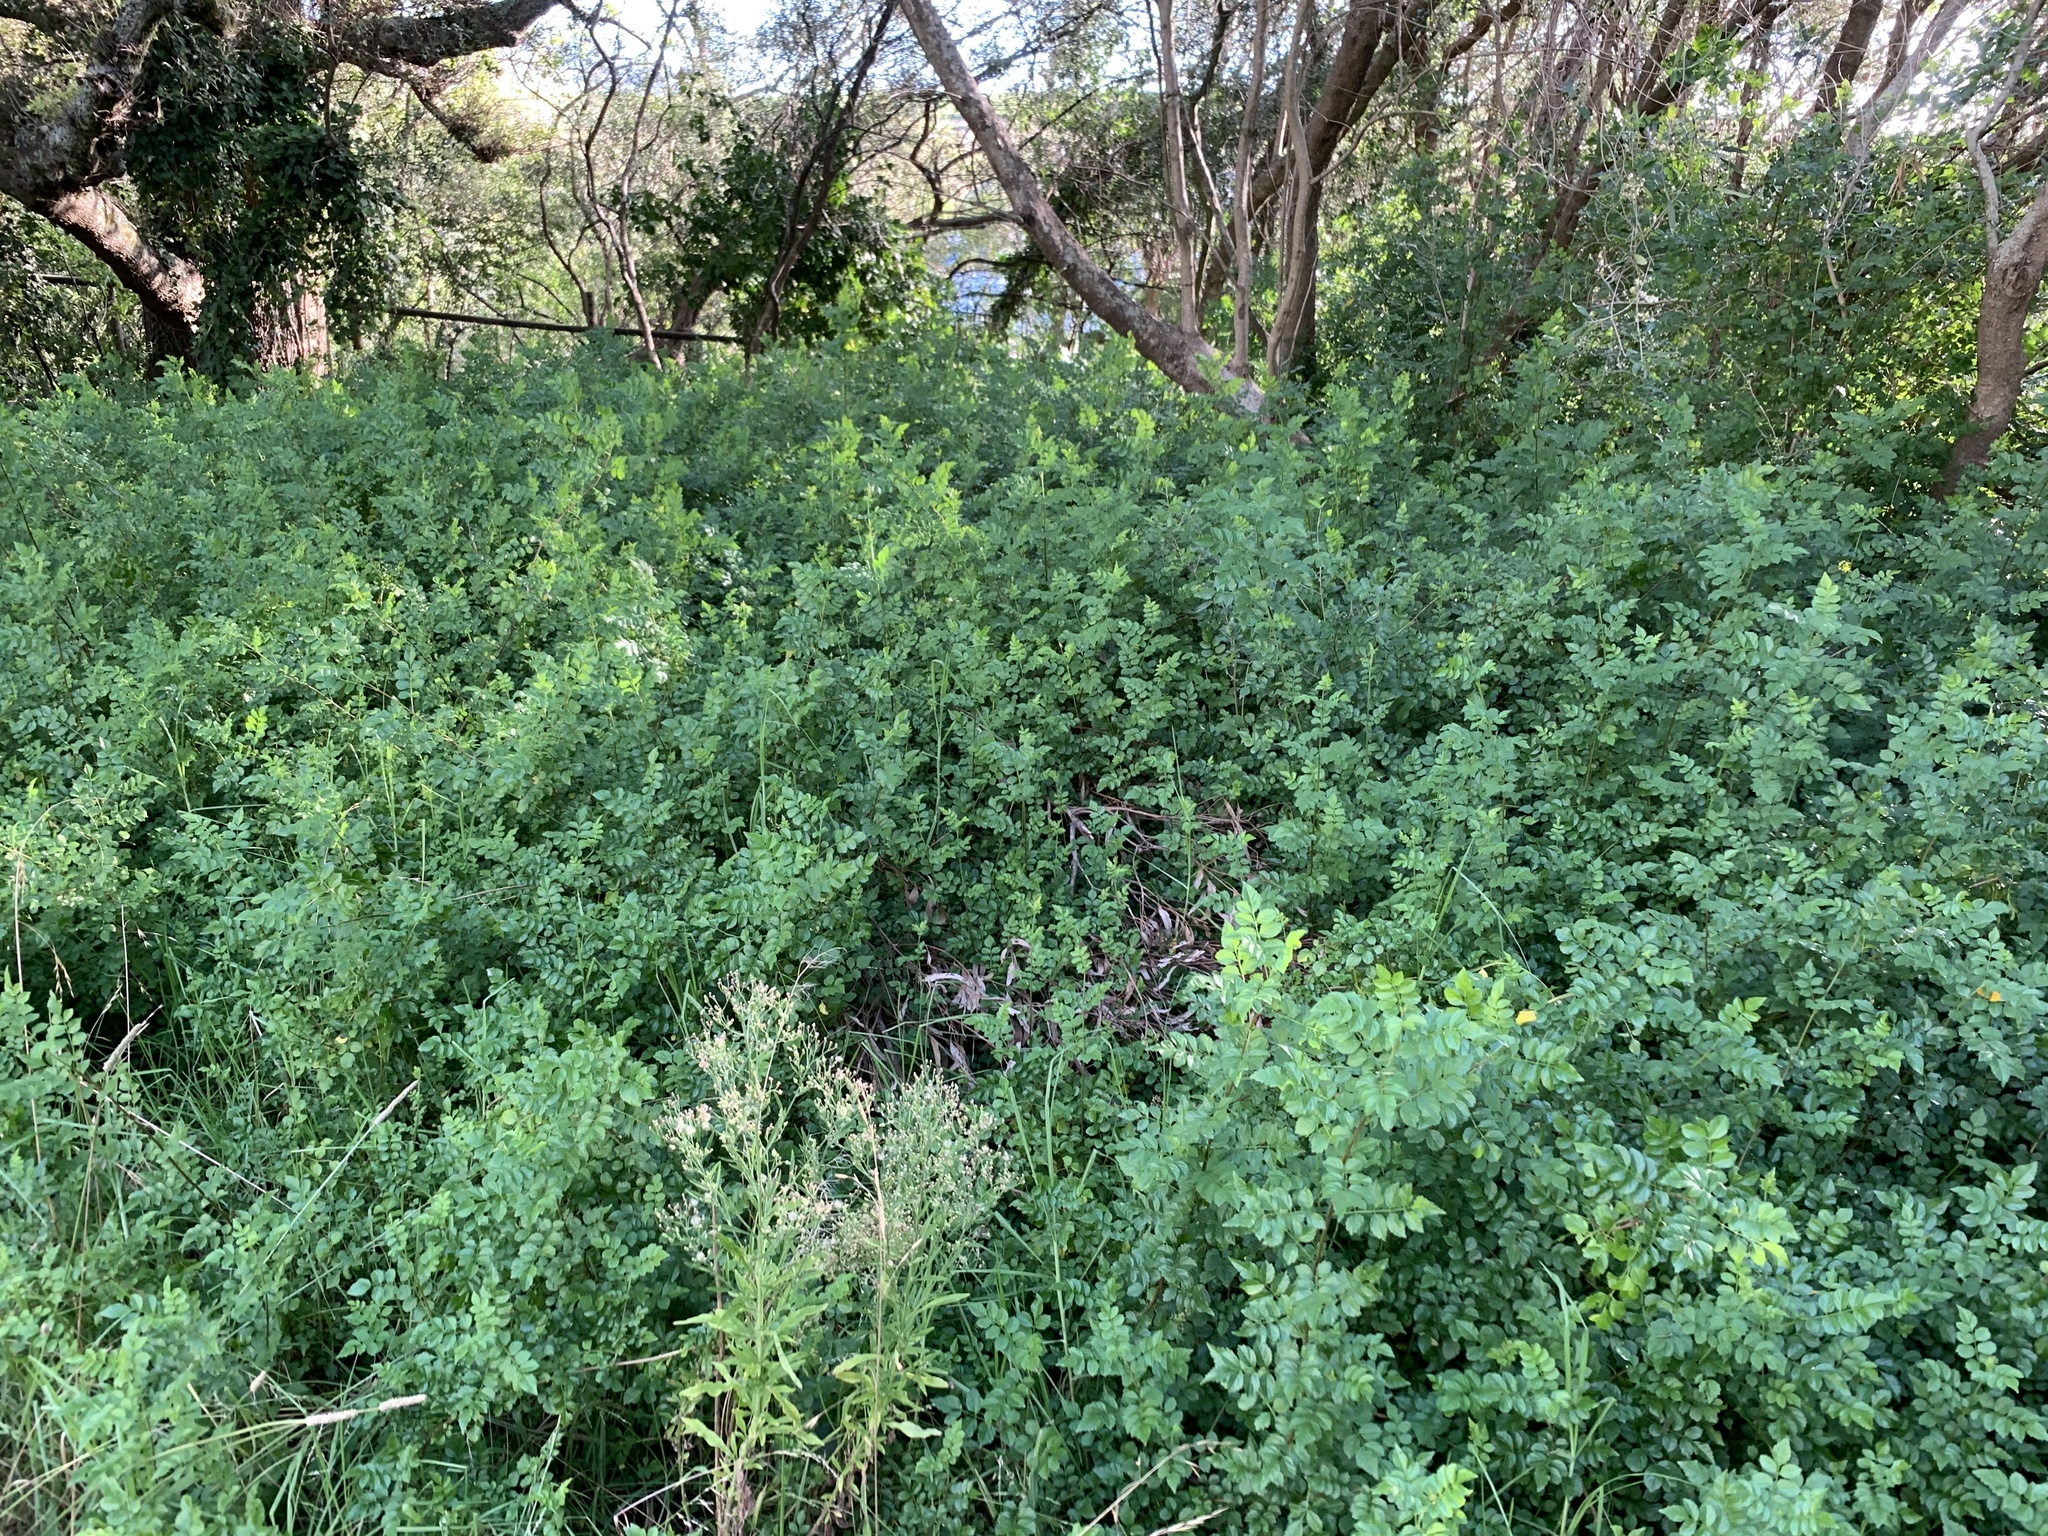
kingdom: Plantae
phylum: Tracheophyta
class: Magnoliopsida
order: Lamiales
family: Bignoniaceae
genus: Tecomaria
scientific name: Tecomaria capensis
